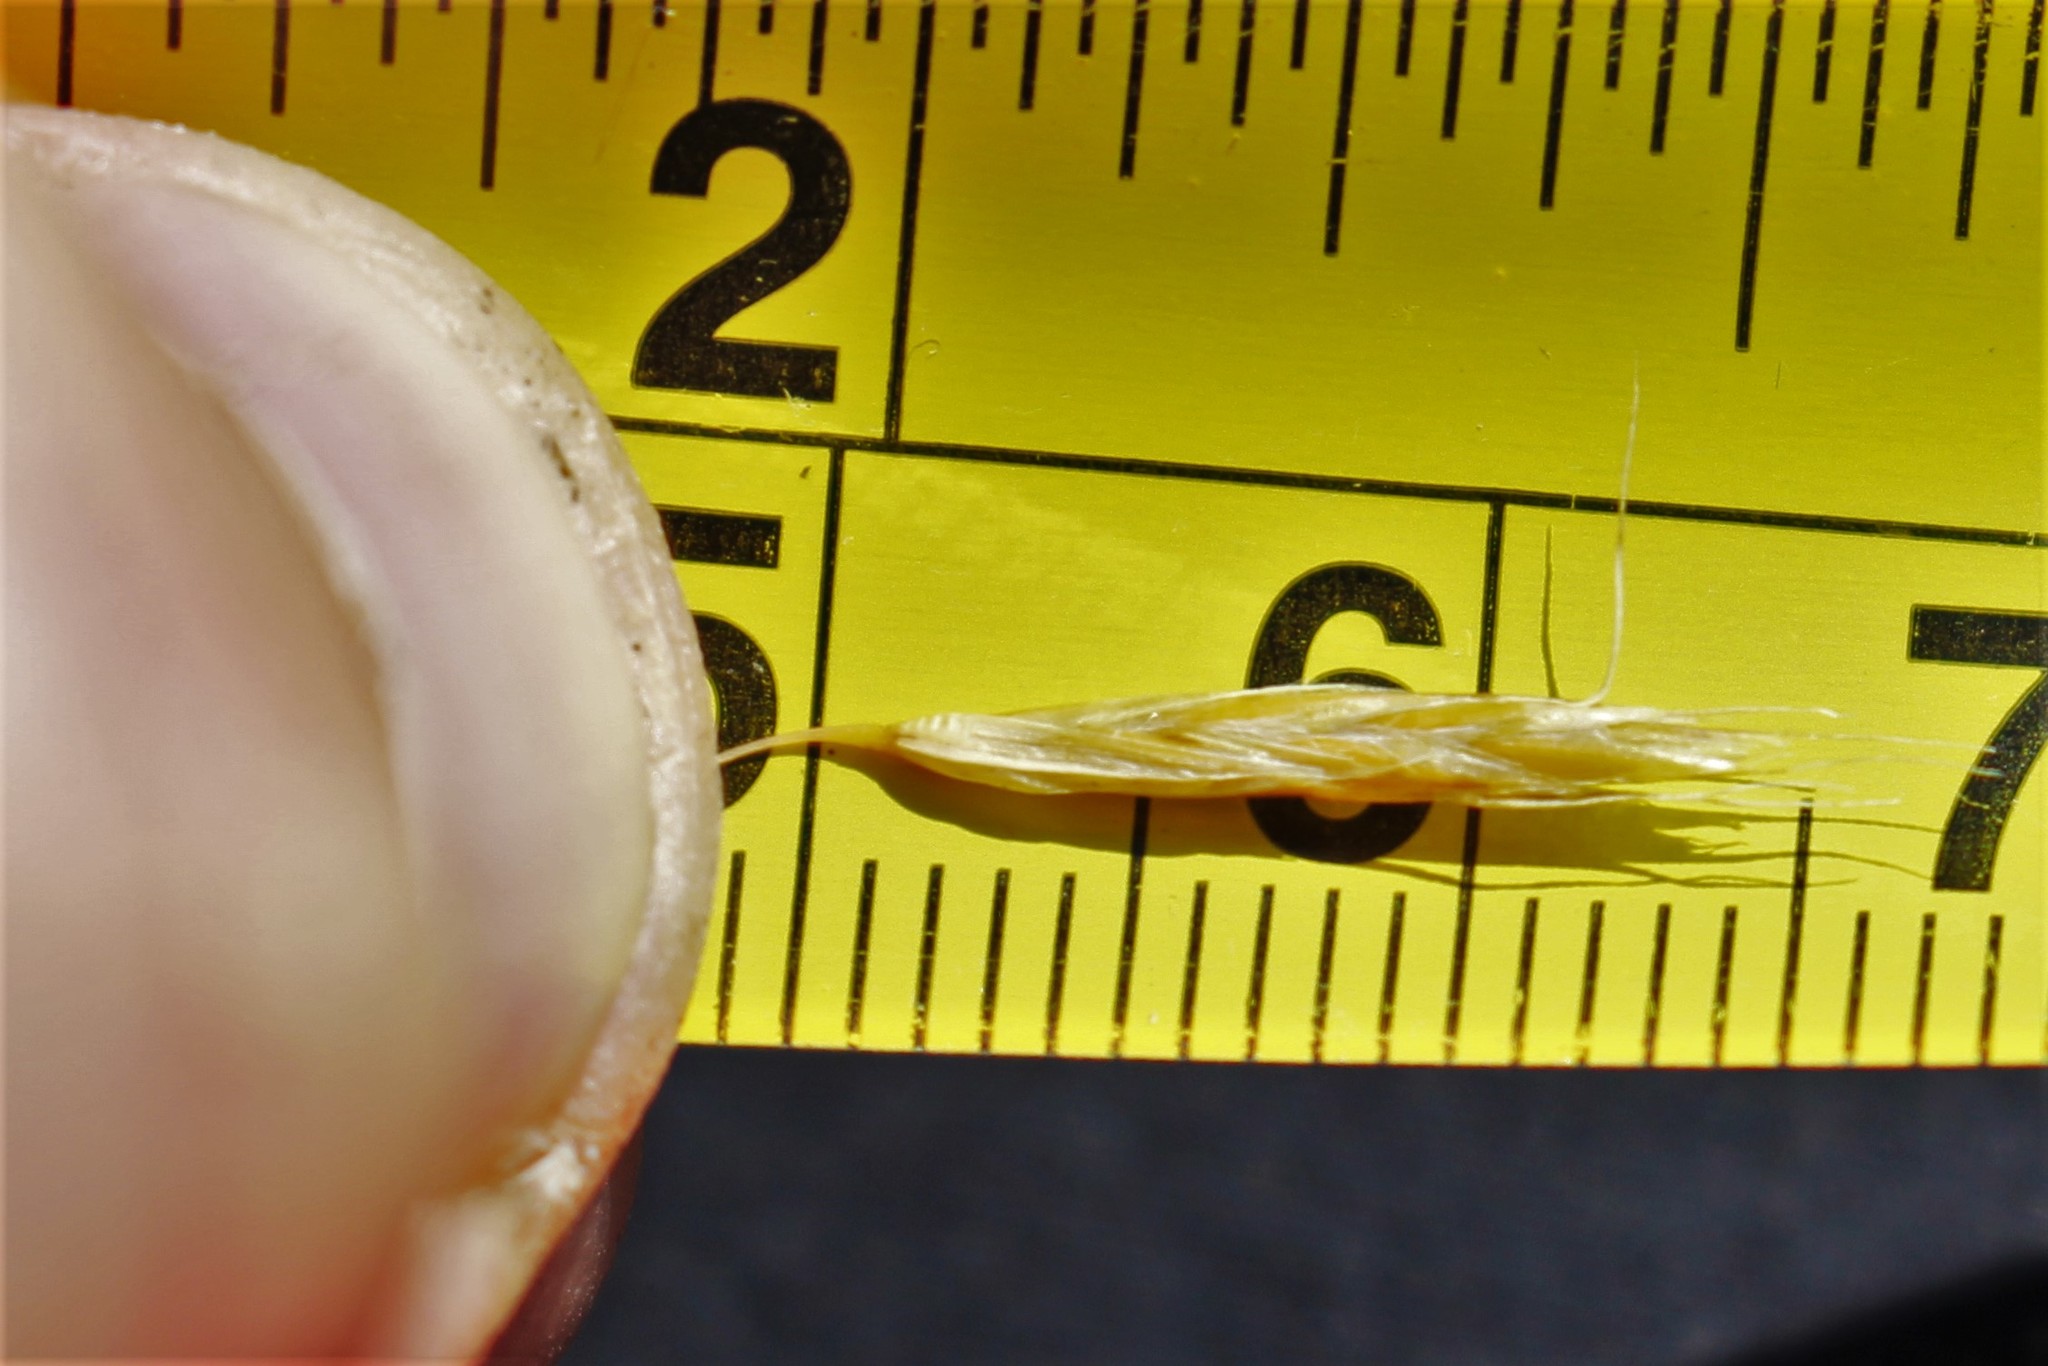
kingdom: Plantae
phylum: Tracheophyta
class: Liliopsida
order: Poales
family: Poaceae
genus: Chionochloa
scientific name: Chionochloa rubra
